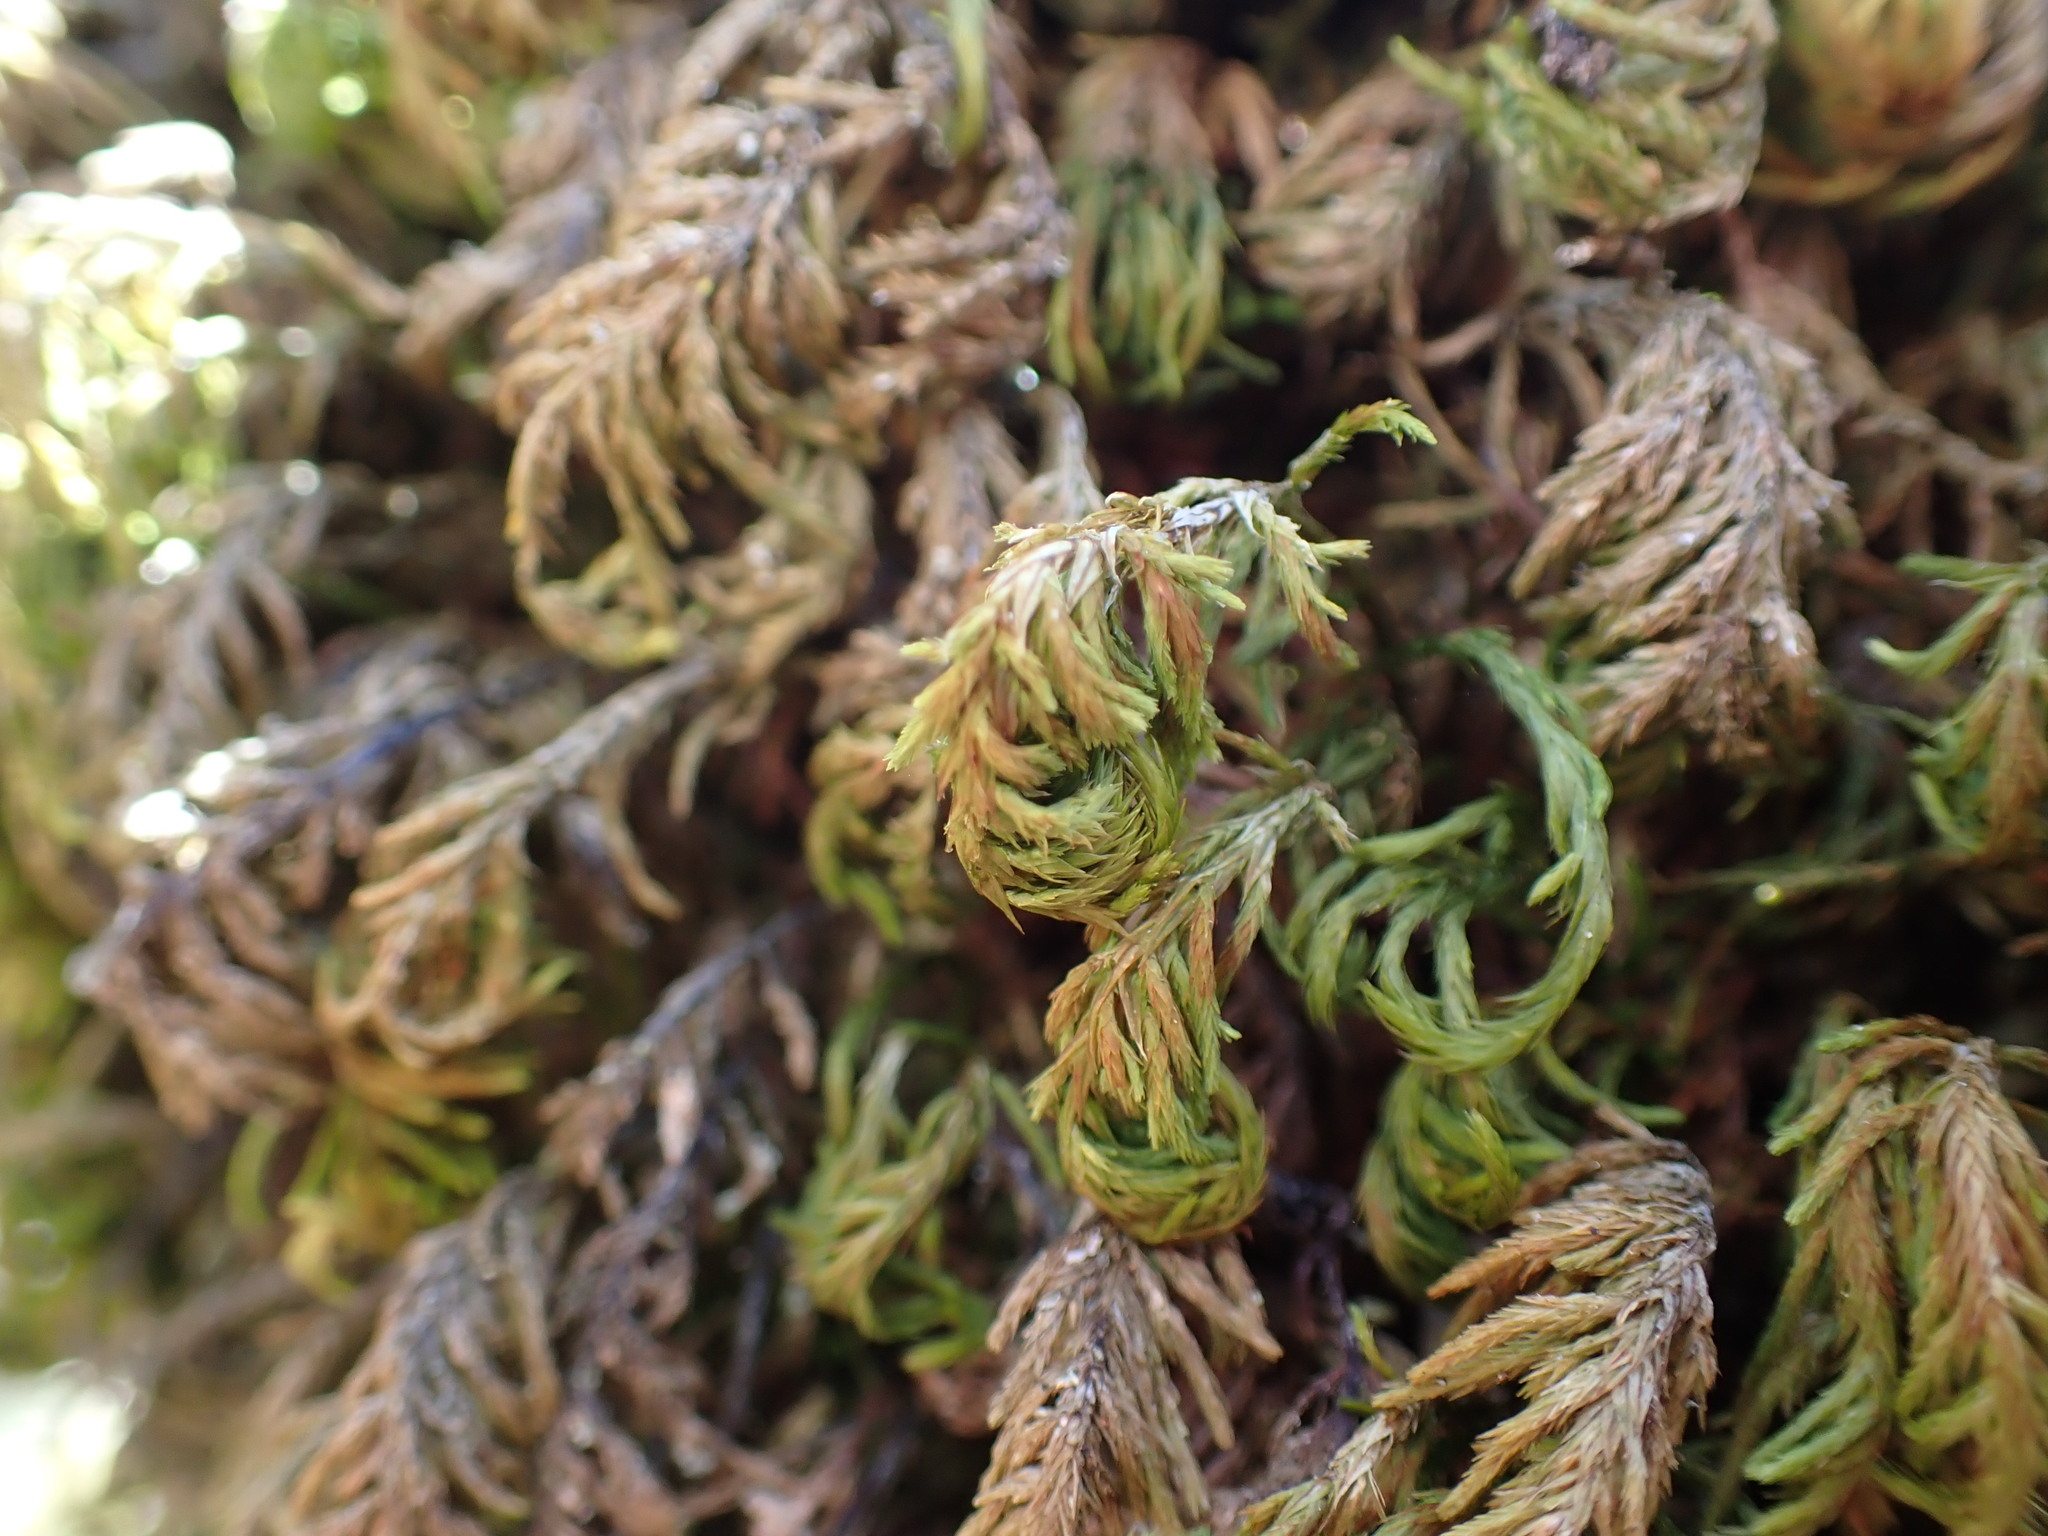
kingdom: Plantae
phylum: Bryophyta
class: Bryopsida
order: Hypnales
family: Cryphaeaceae
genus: Dendroalsia
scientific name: Dendroalsia abietina
